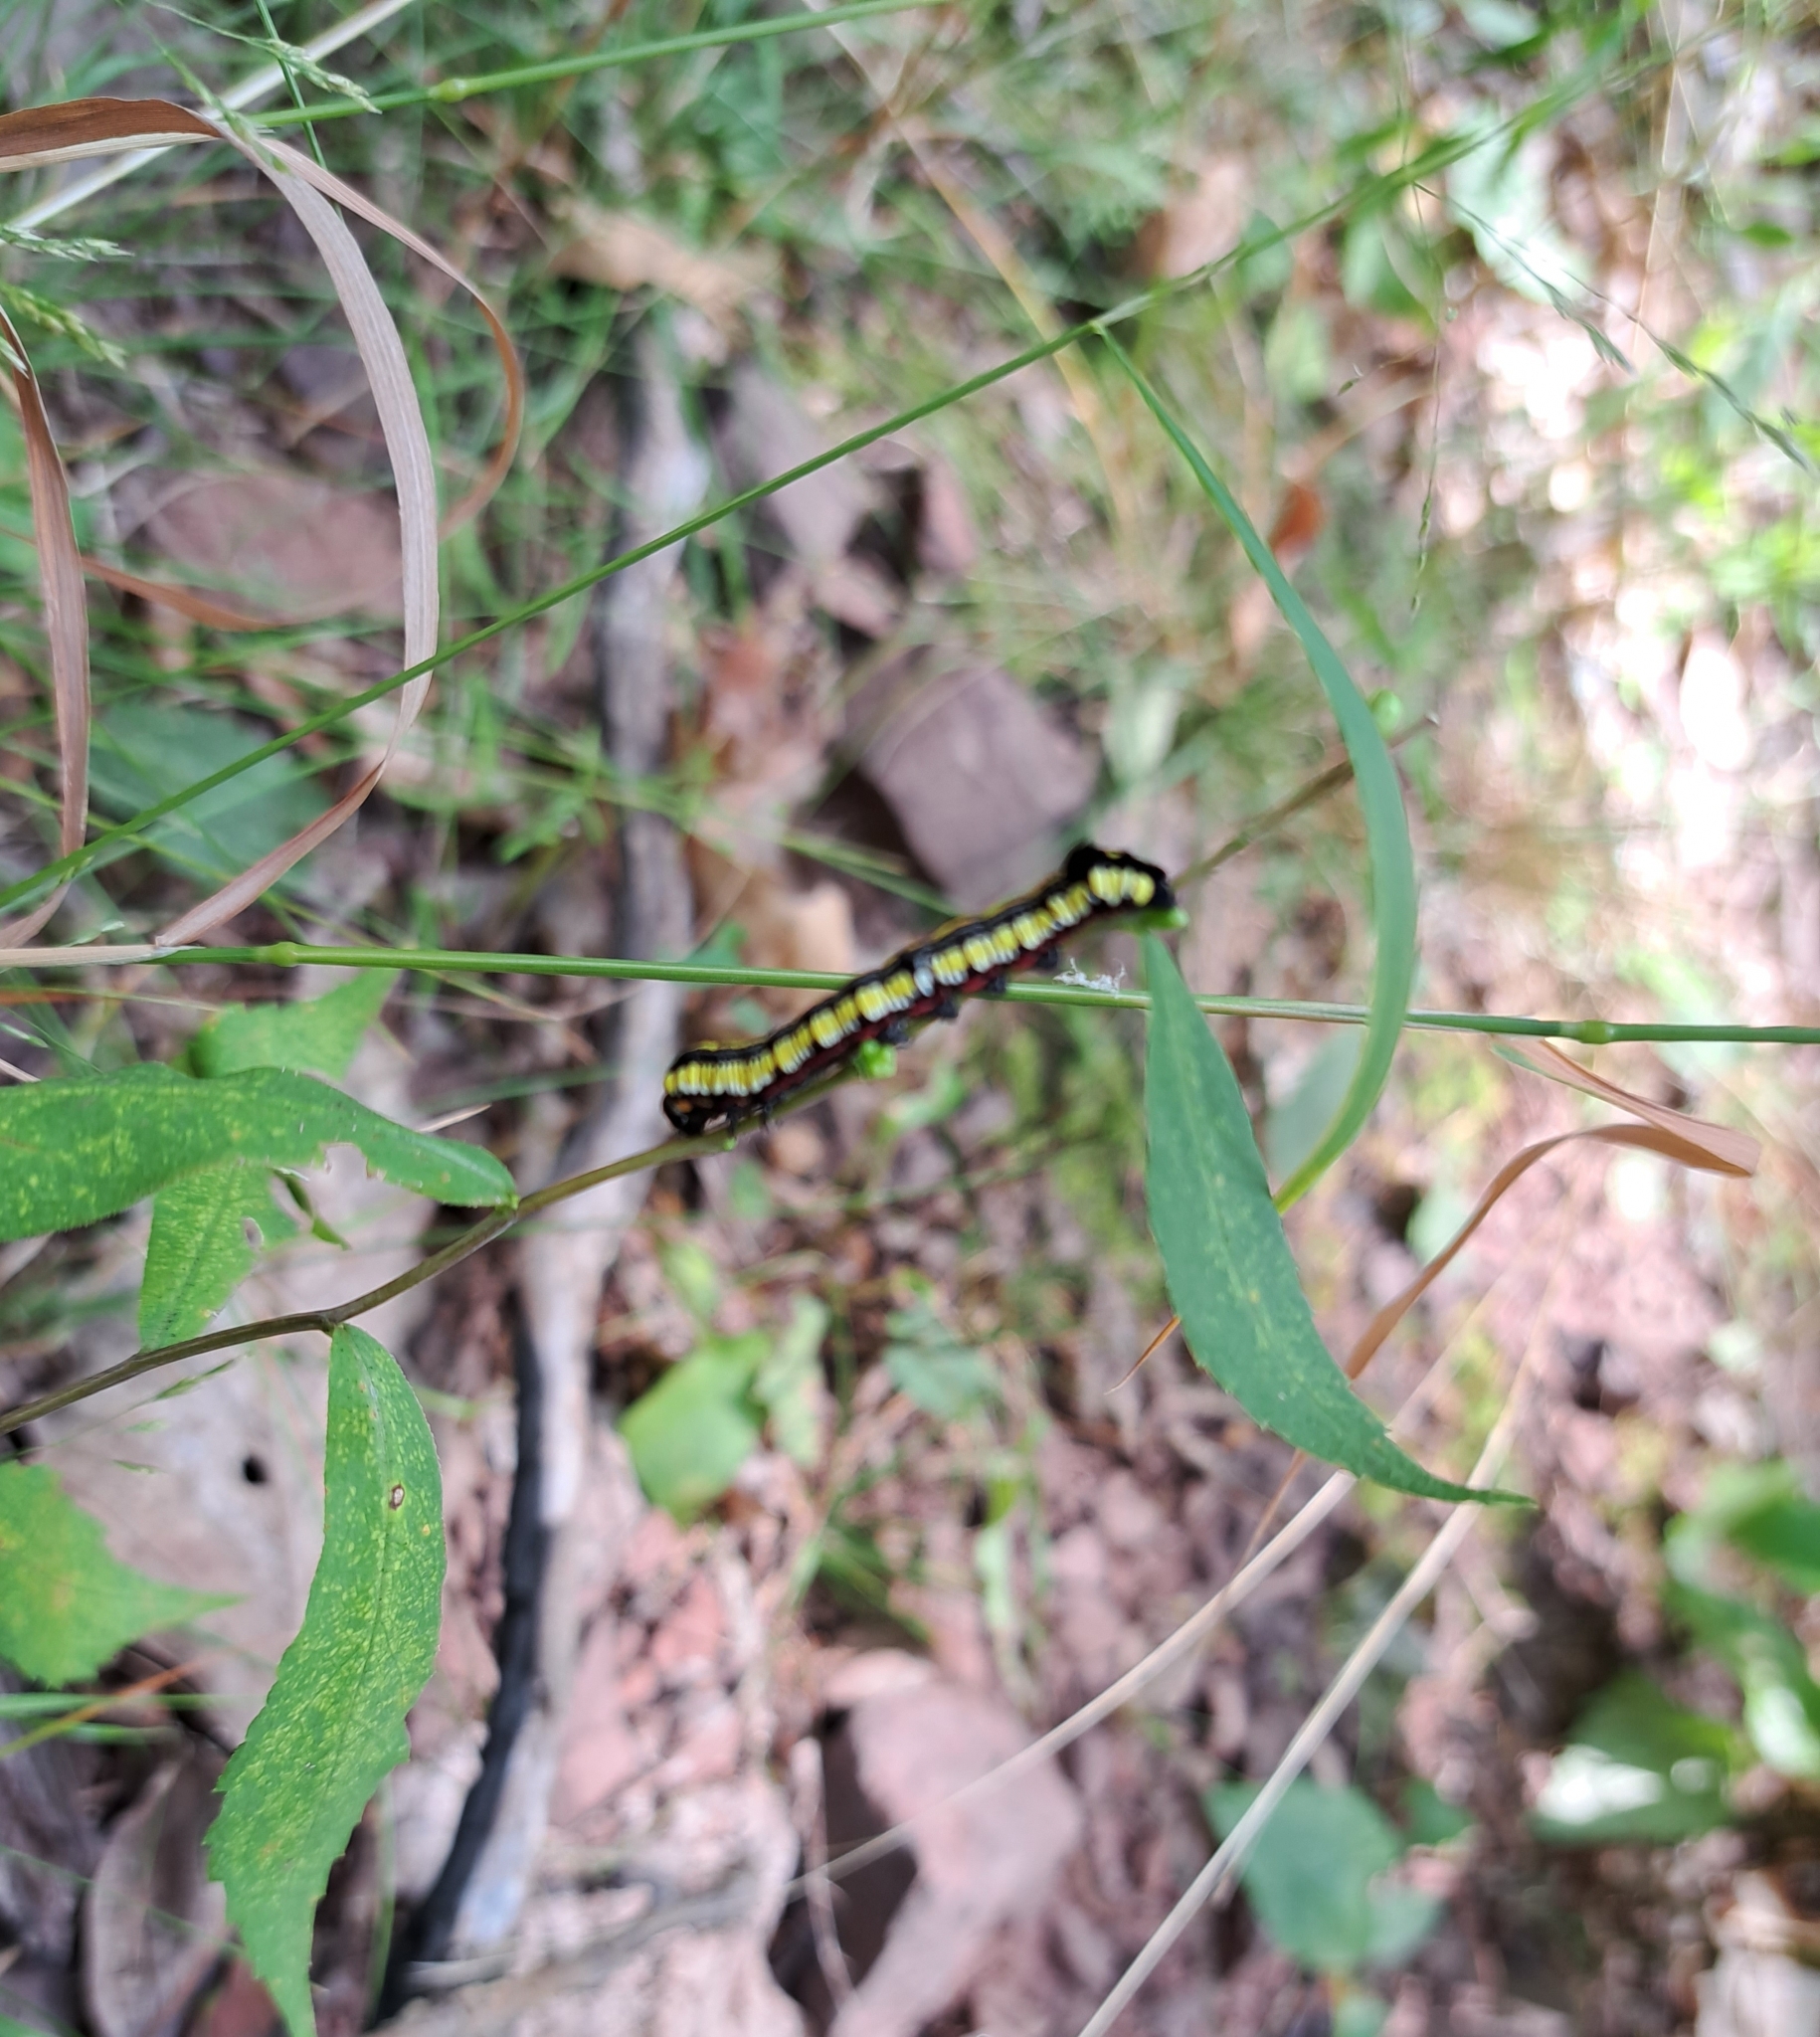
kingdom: Animalia
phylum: Arthropoda
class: Insecta
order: Lepidoptera
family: Noctuidae
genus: Cucullia
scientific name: Cucullia convexipennis
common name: Brown-hooded owlet
